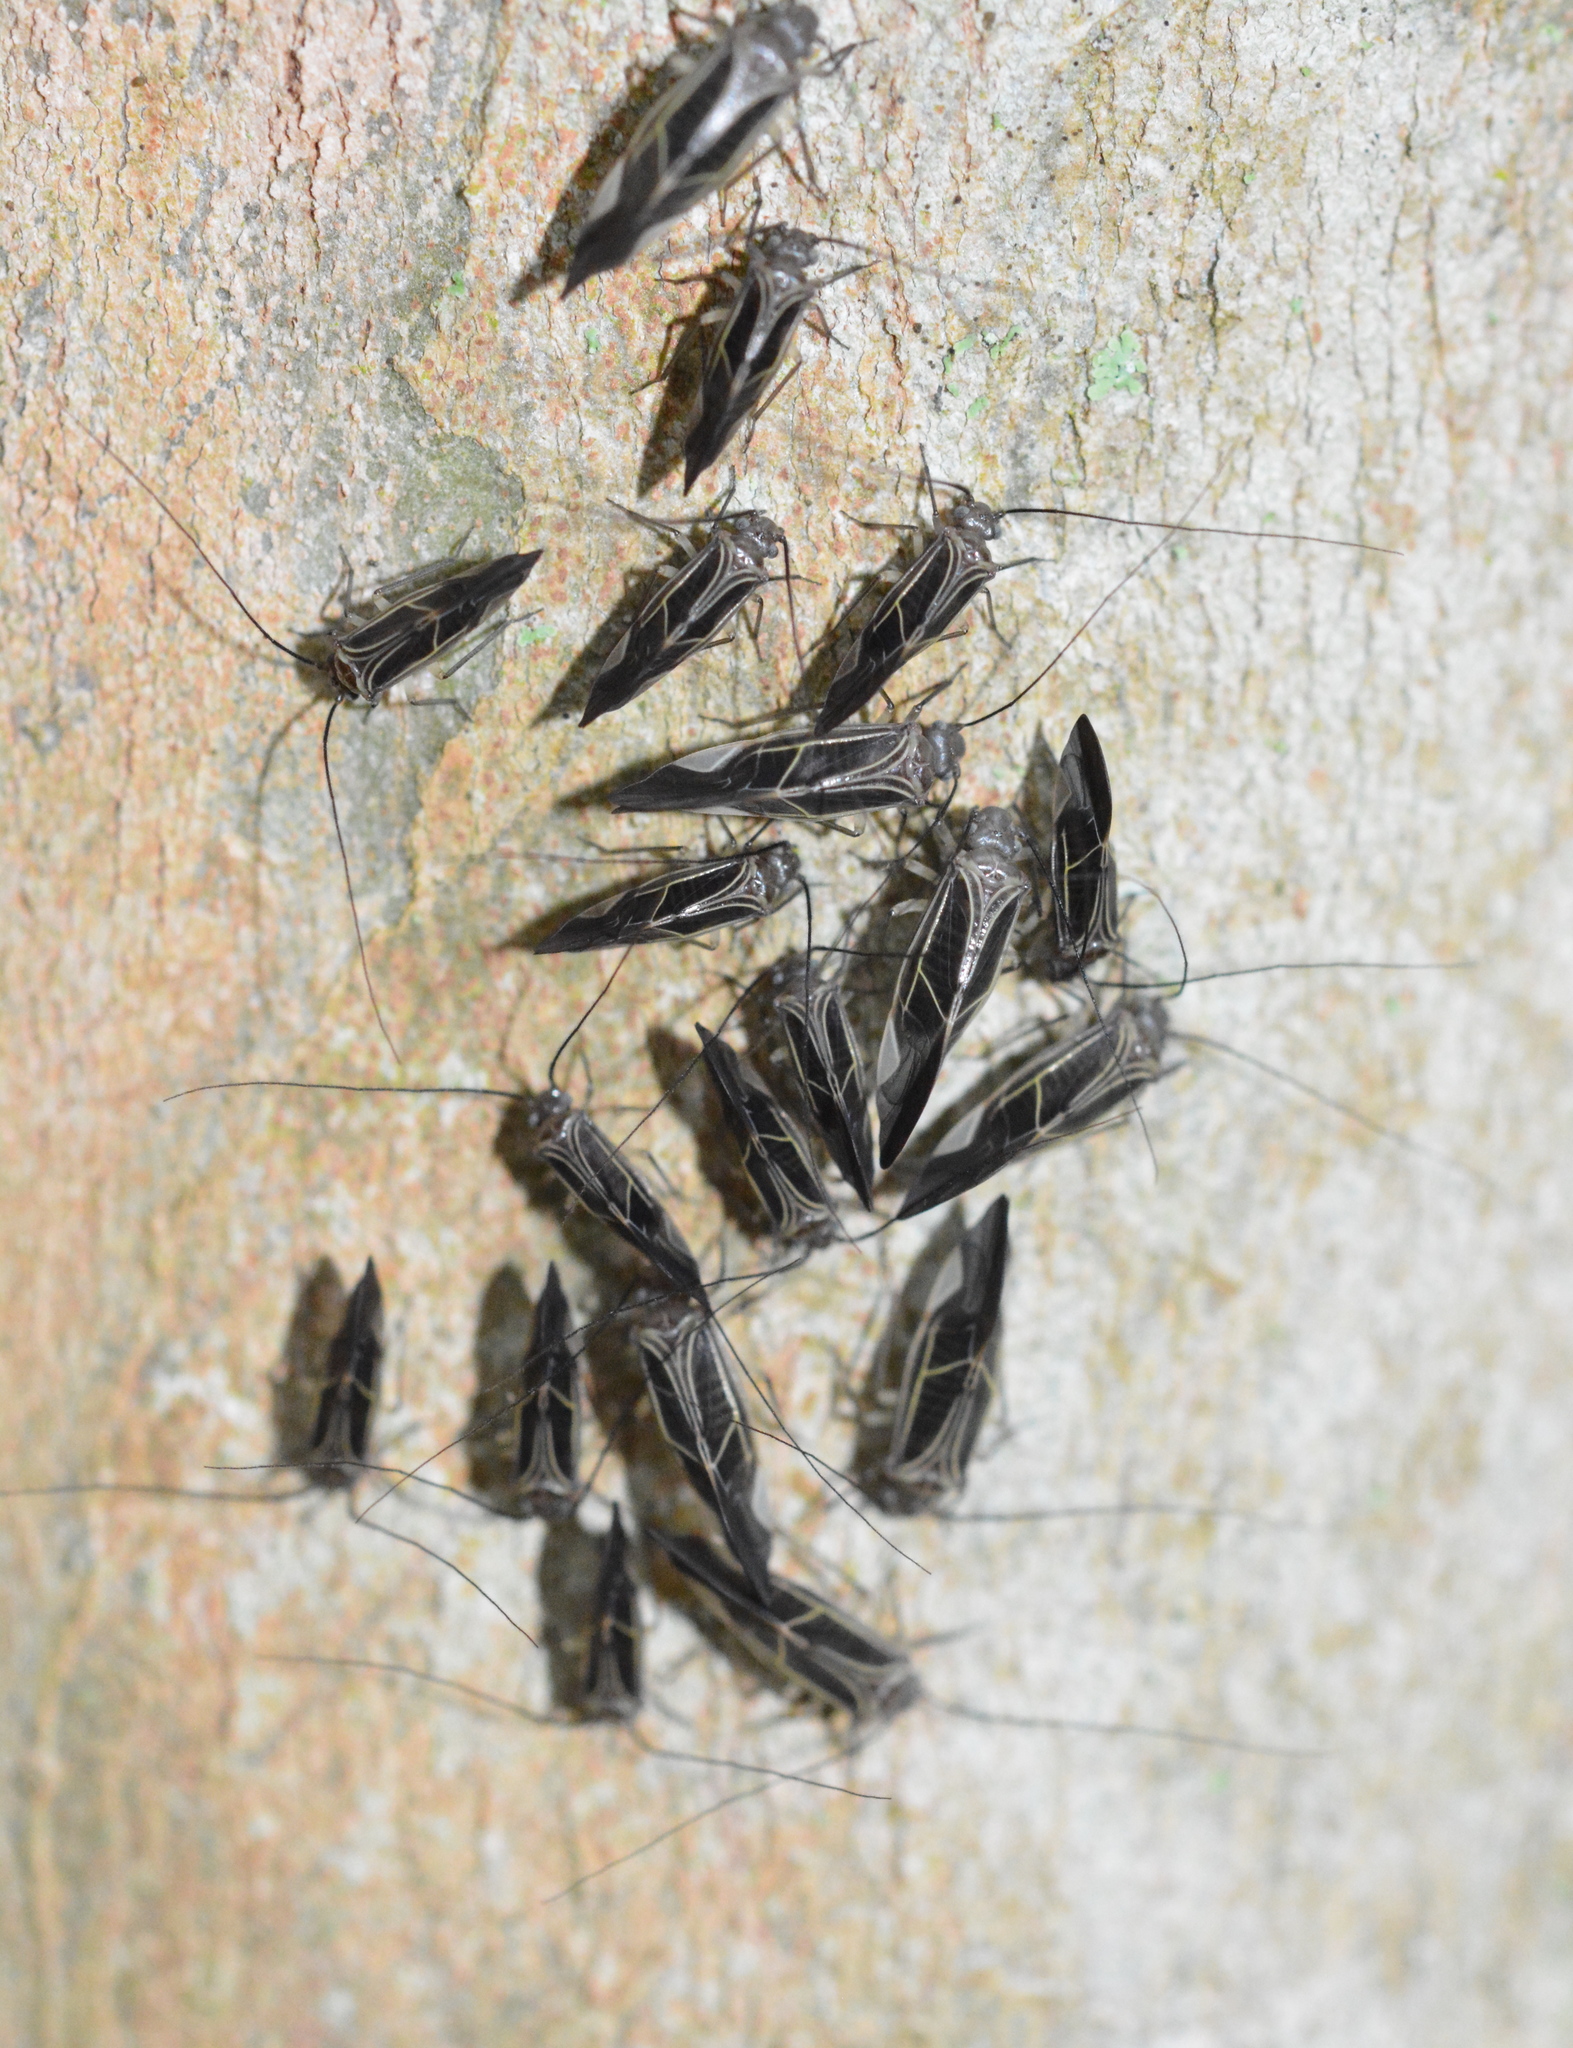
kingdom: Animalia
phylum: Arthropoda
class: Insecta
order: Psocodea
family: Psocidae
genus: Cerastipsocus
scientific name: Cerastipsocus venosus
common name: Tree cattle
